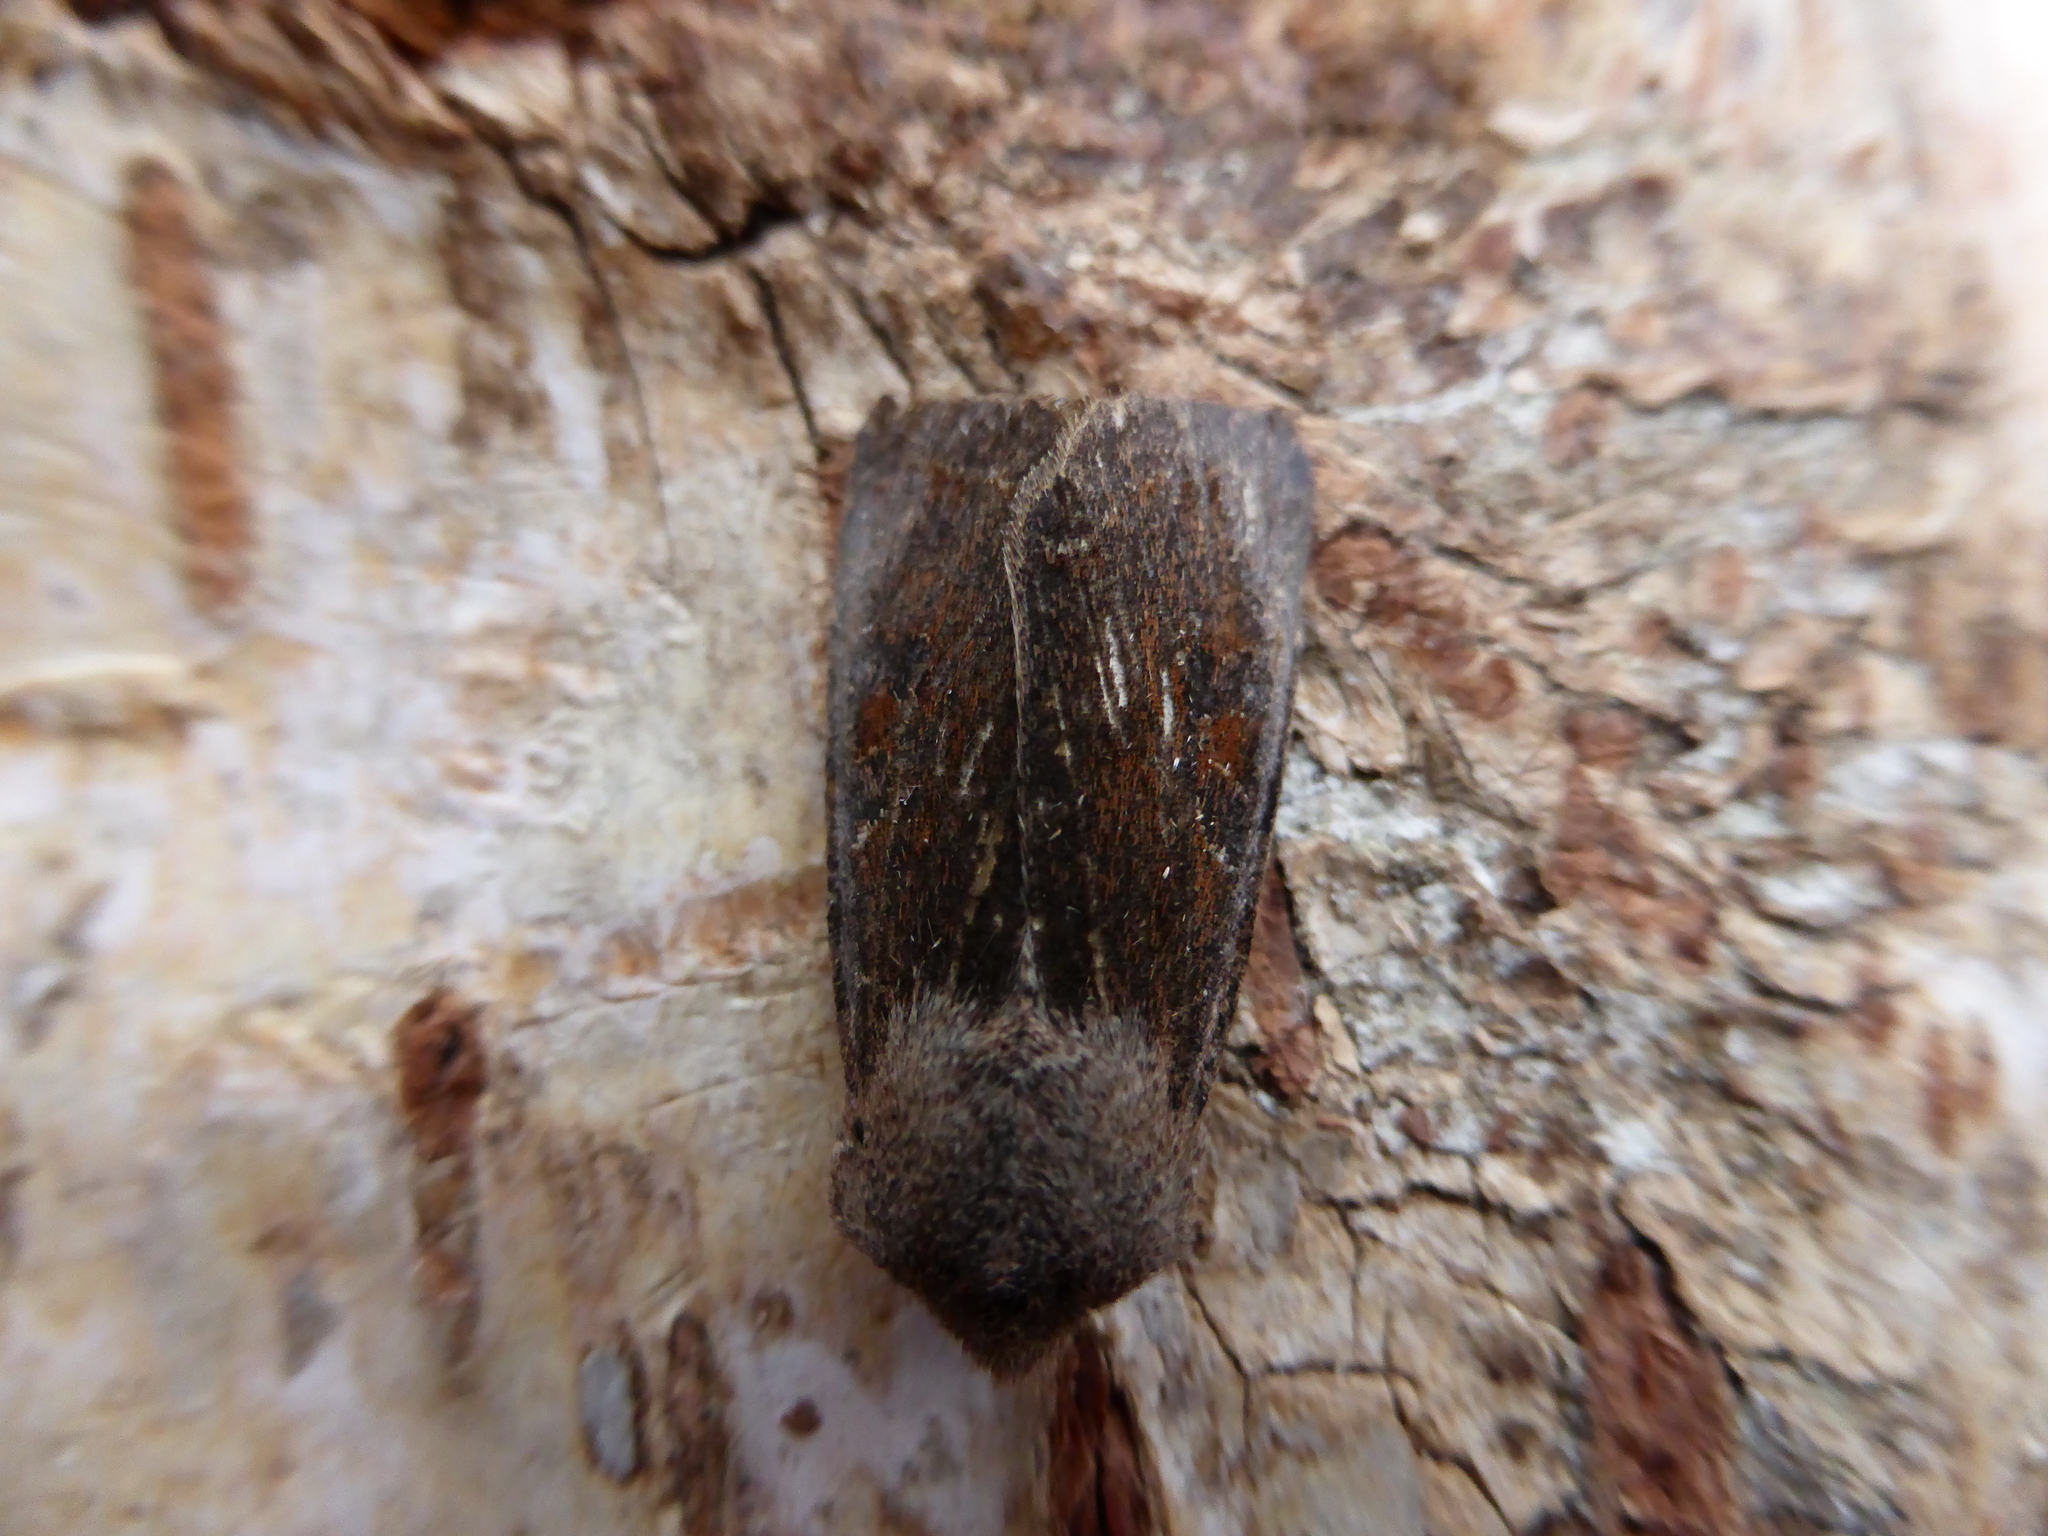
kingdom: Animalia
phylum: Arthropoda
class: Insecta
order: Lepidoptera
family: Noctuidae
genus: Orthosia
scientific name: Orthosia incerta
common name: Clouded drab
